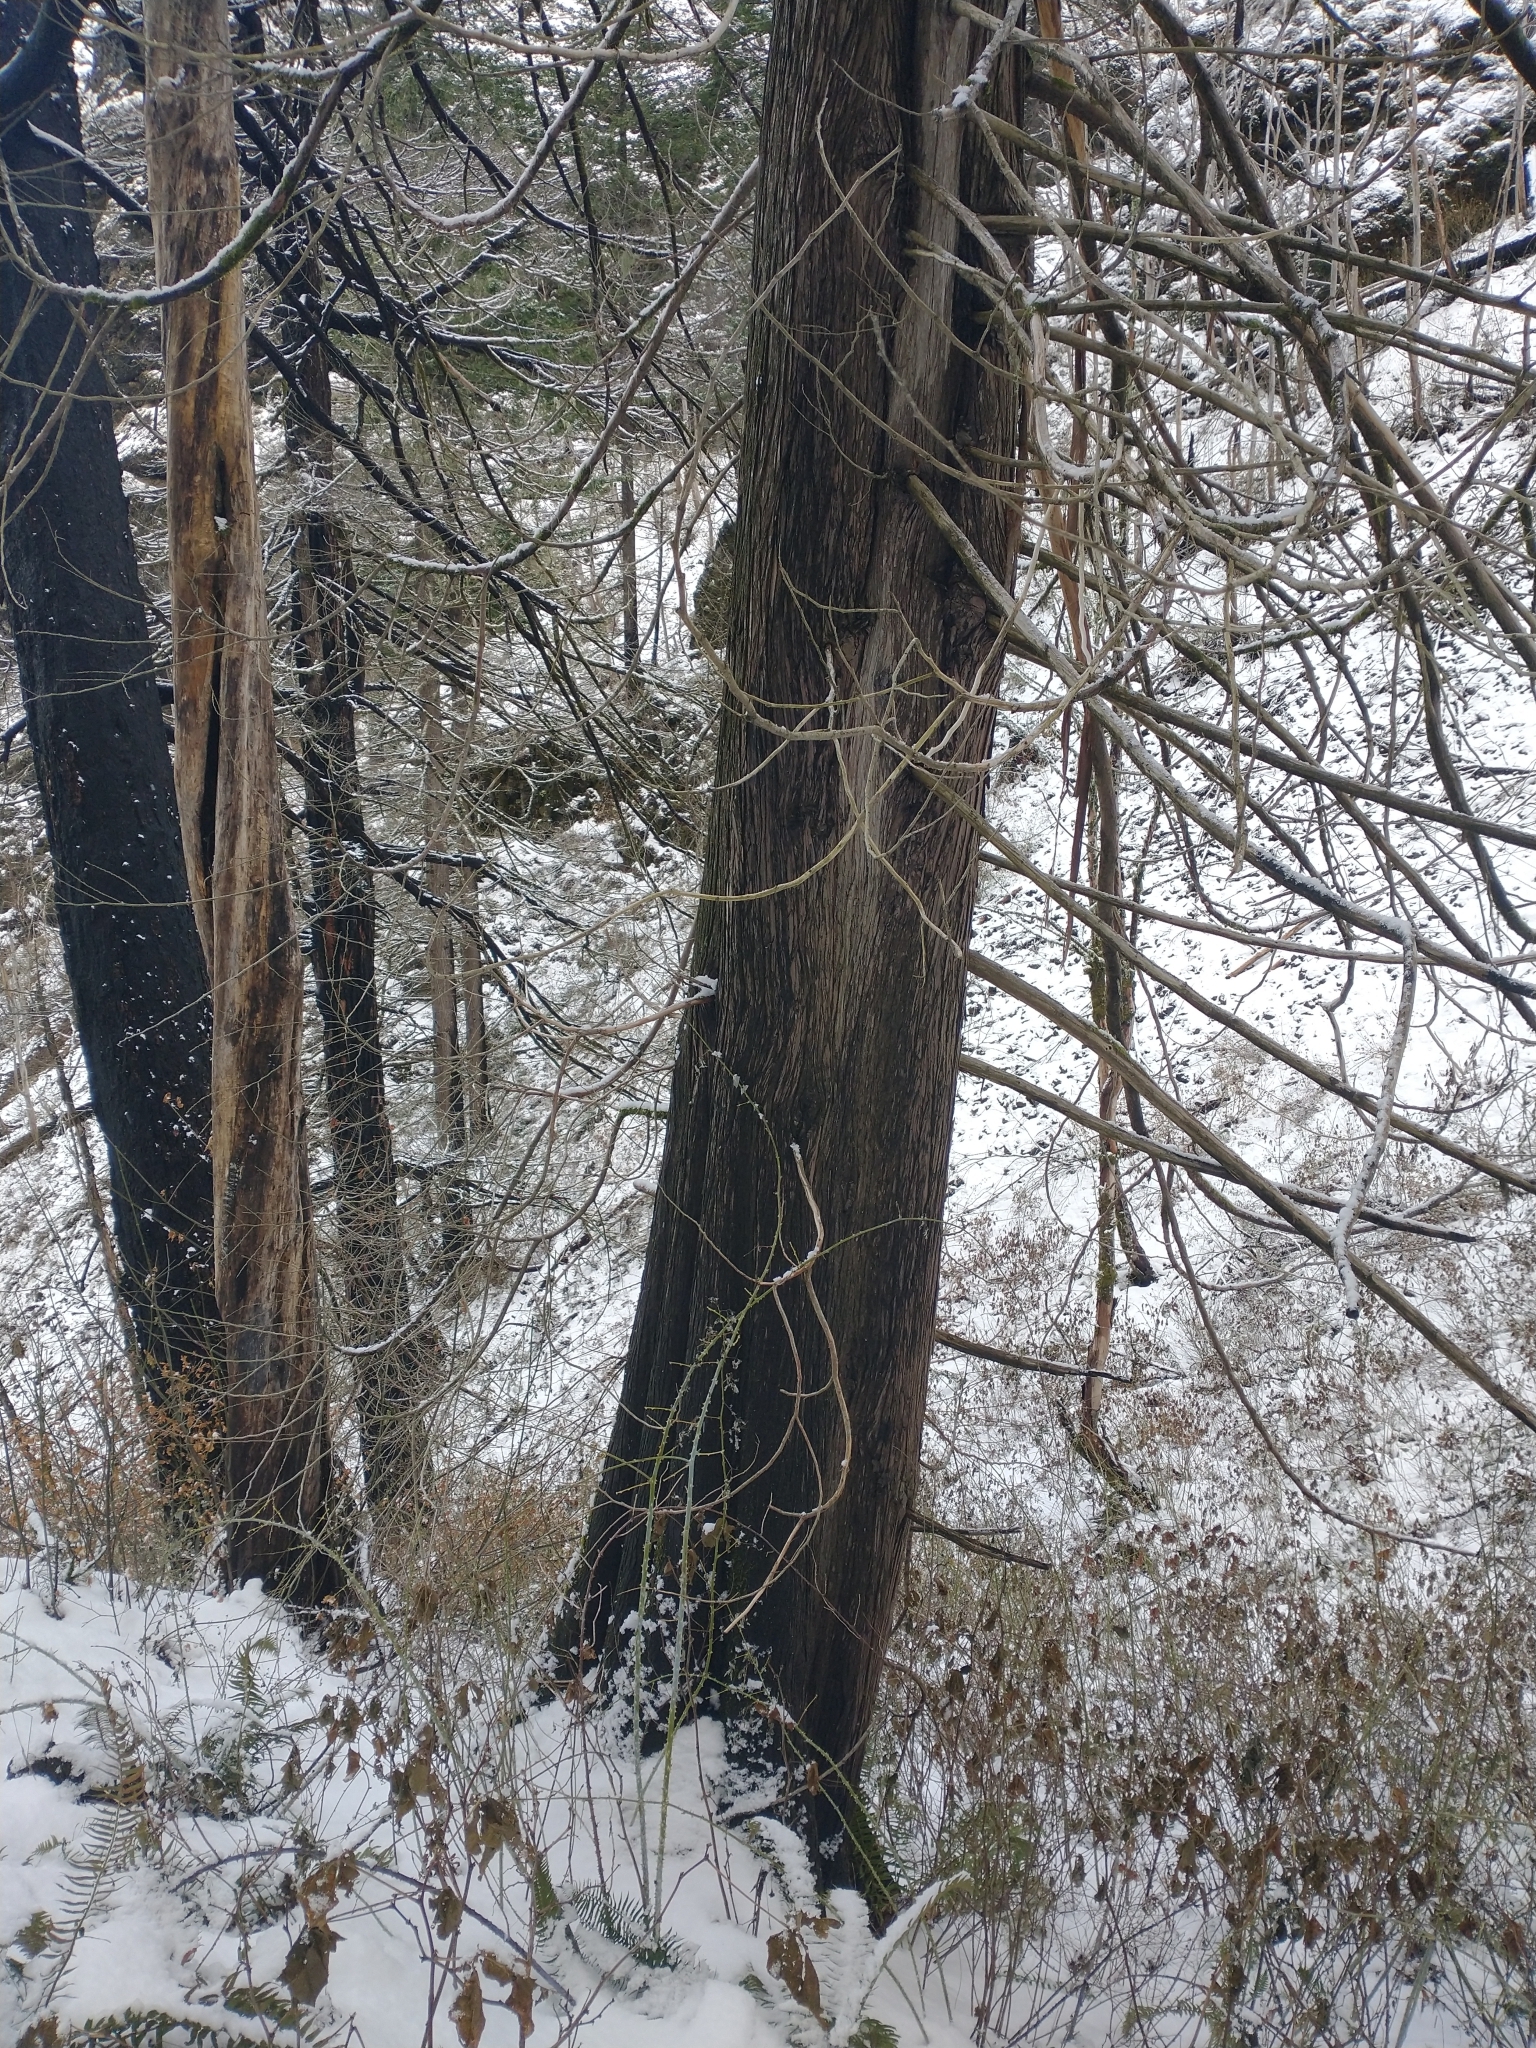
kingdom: Plantae
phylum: Tracheophyta
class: Pinopsida
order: Pinales
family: Cupressaceae
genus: Thuja
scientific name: Thuja plicata
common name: Western red-cedar
